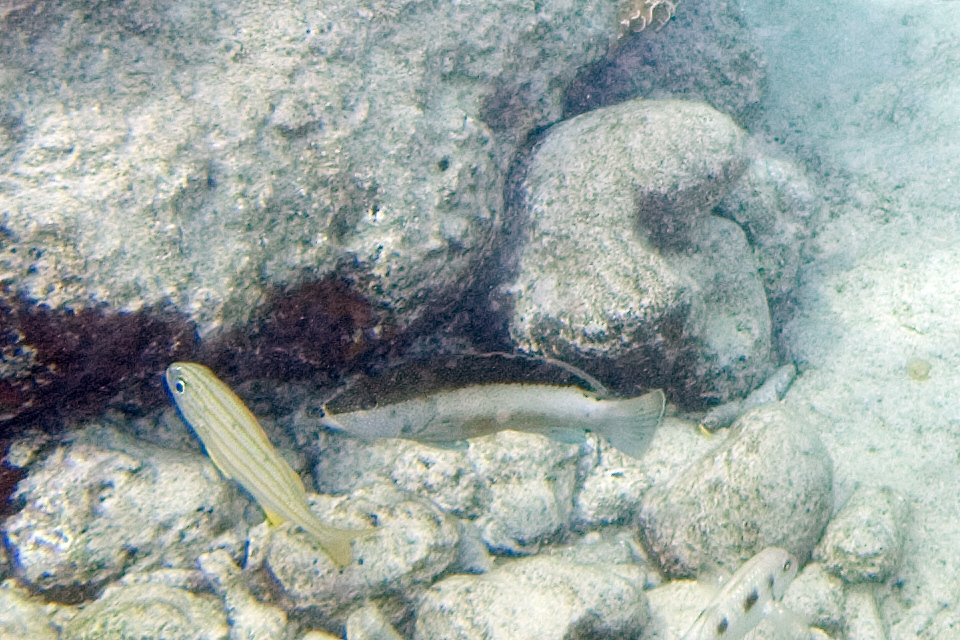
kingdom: Animalia
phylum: Chordata
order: Perciformes
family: Serranidae
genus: Cephalopholis
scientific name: Cephalopholis fulva
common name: Butterfish
